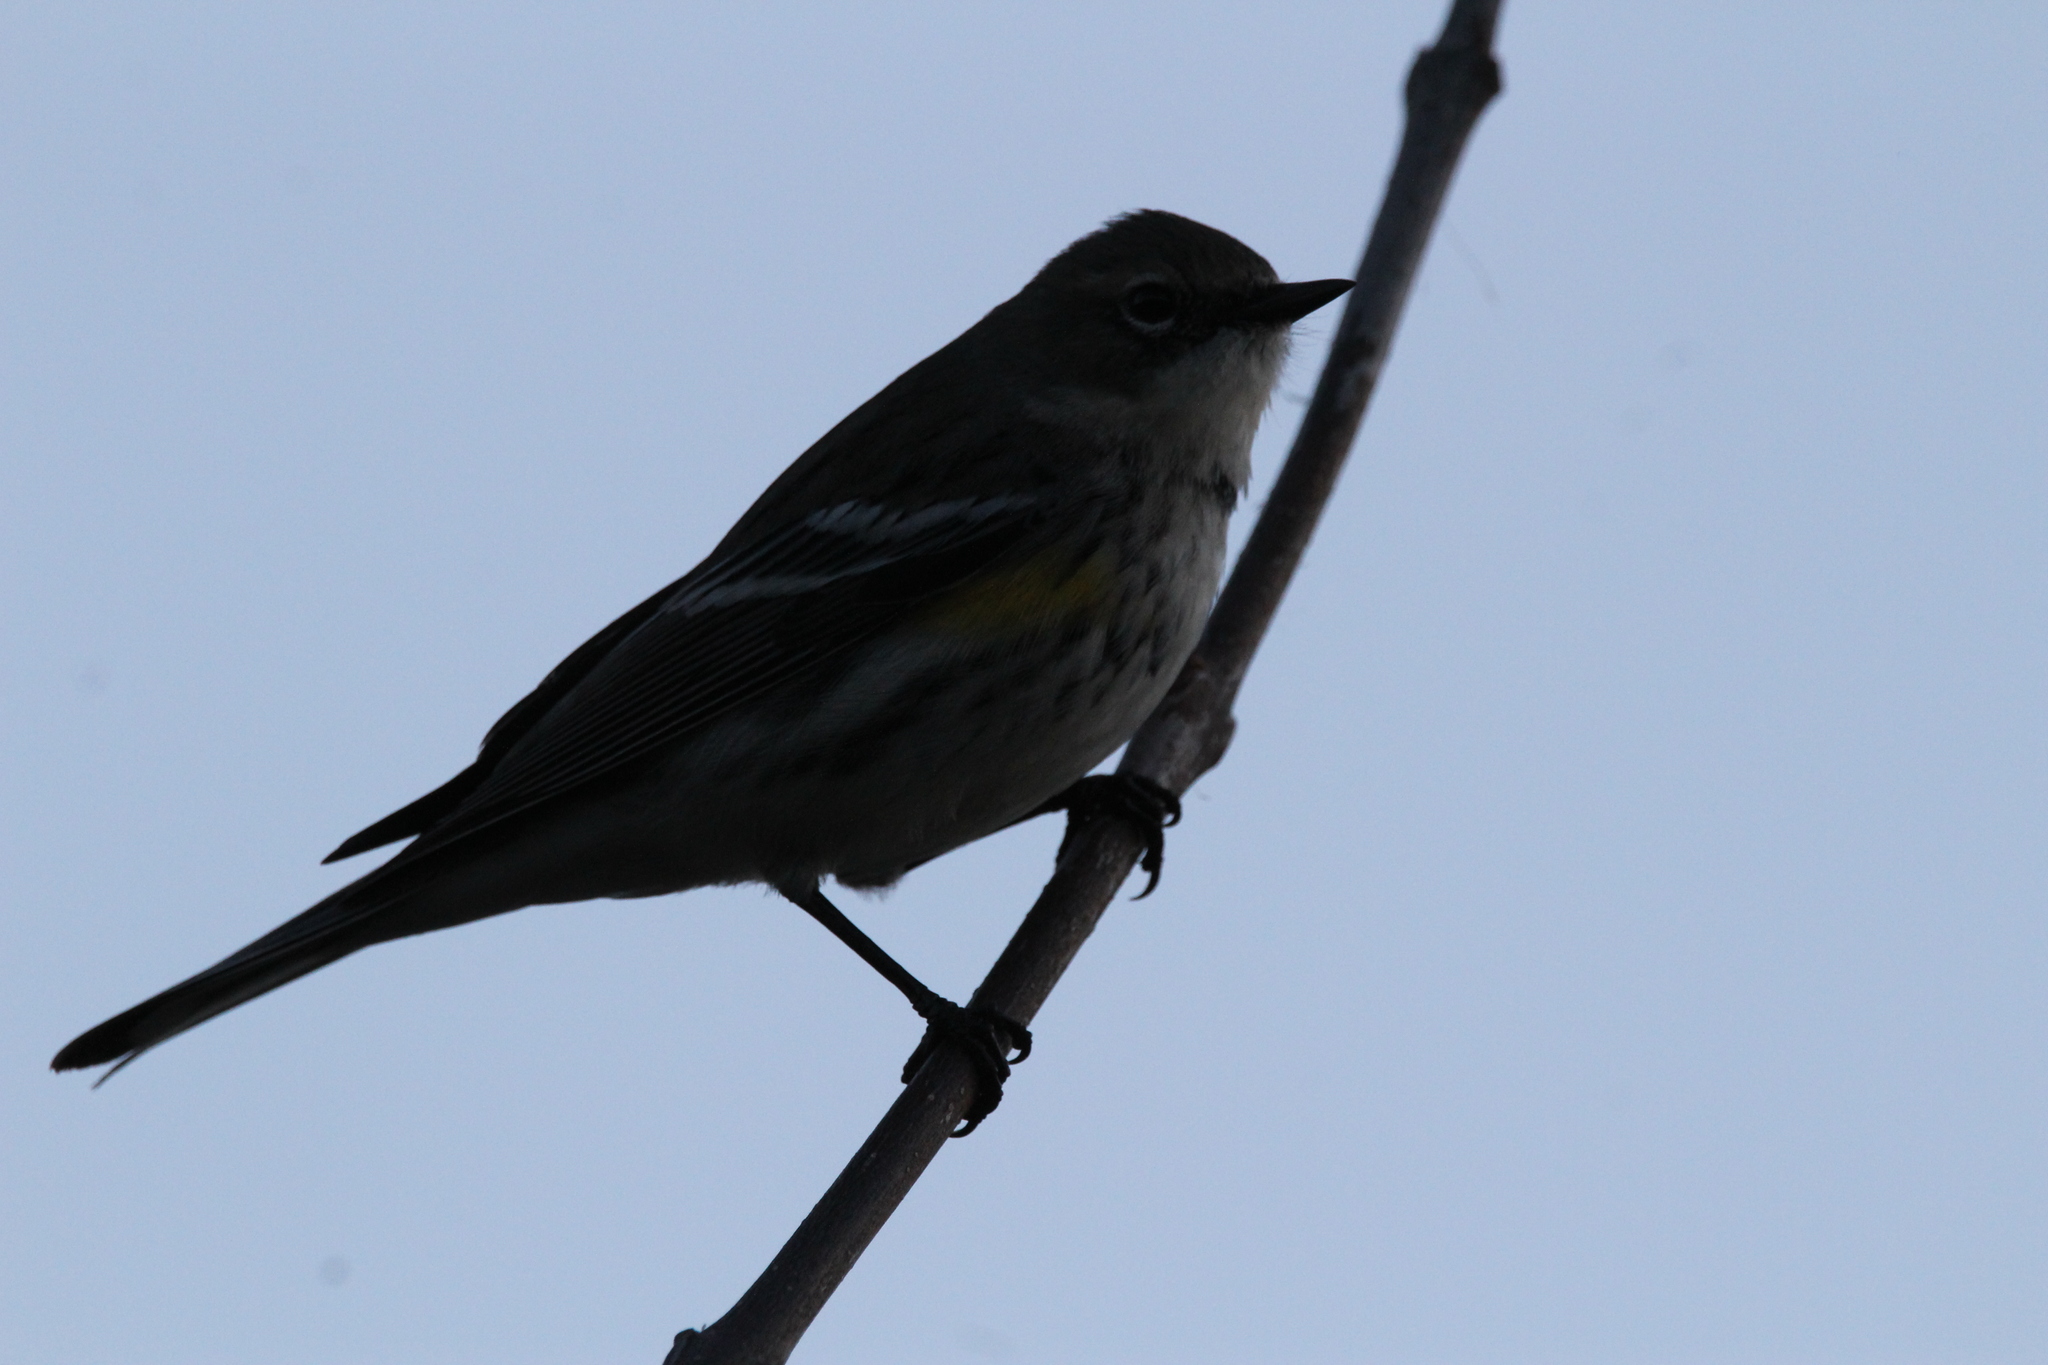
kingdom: Animalia
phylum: Chordata
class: Aves
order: Passeriformes
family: Parulidae
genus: Setophaga
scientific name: Setophaga coronata
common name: Myrtle warbler
